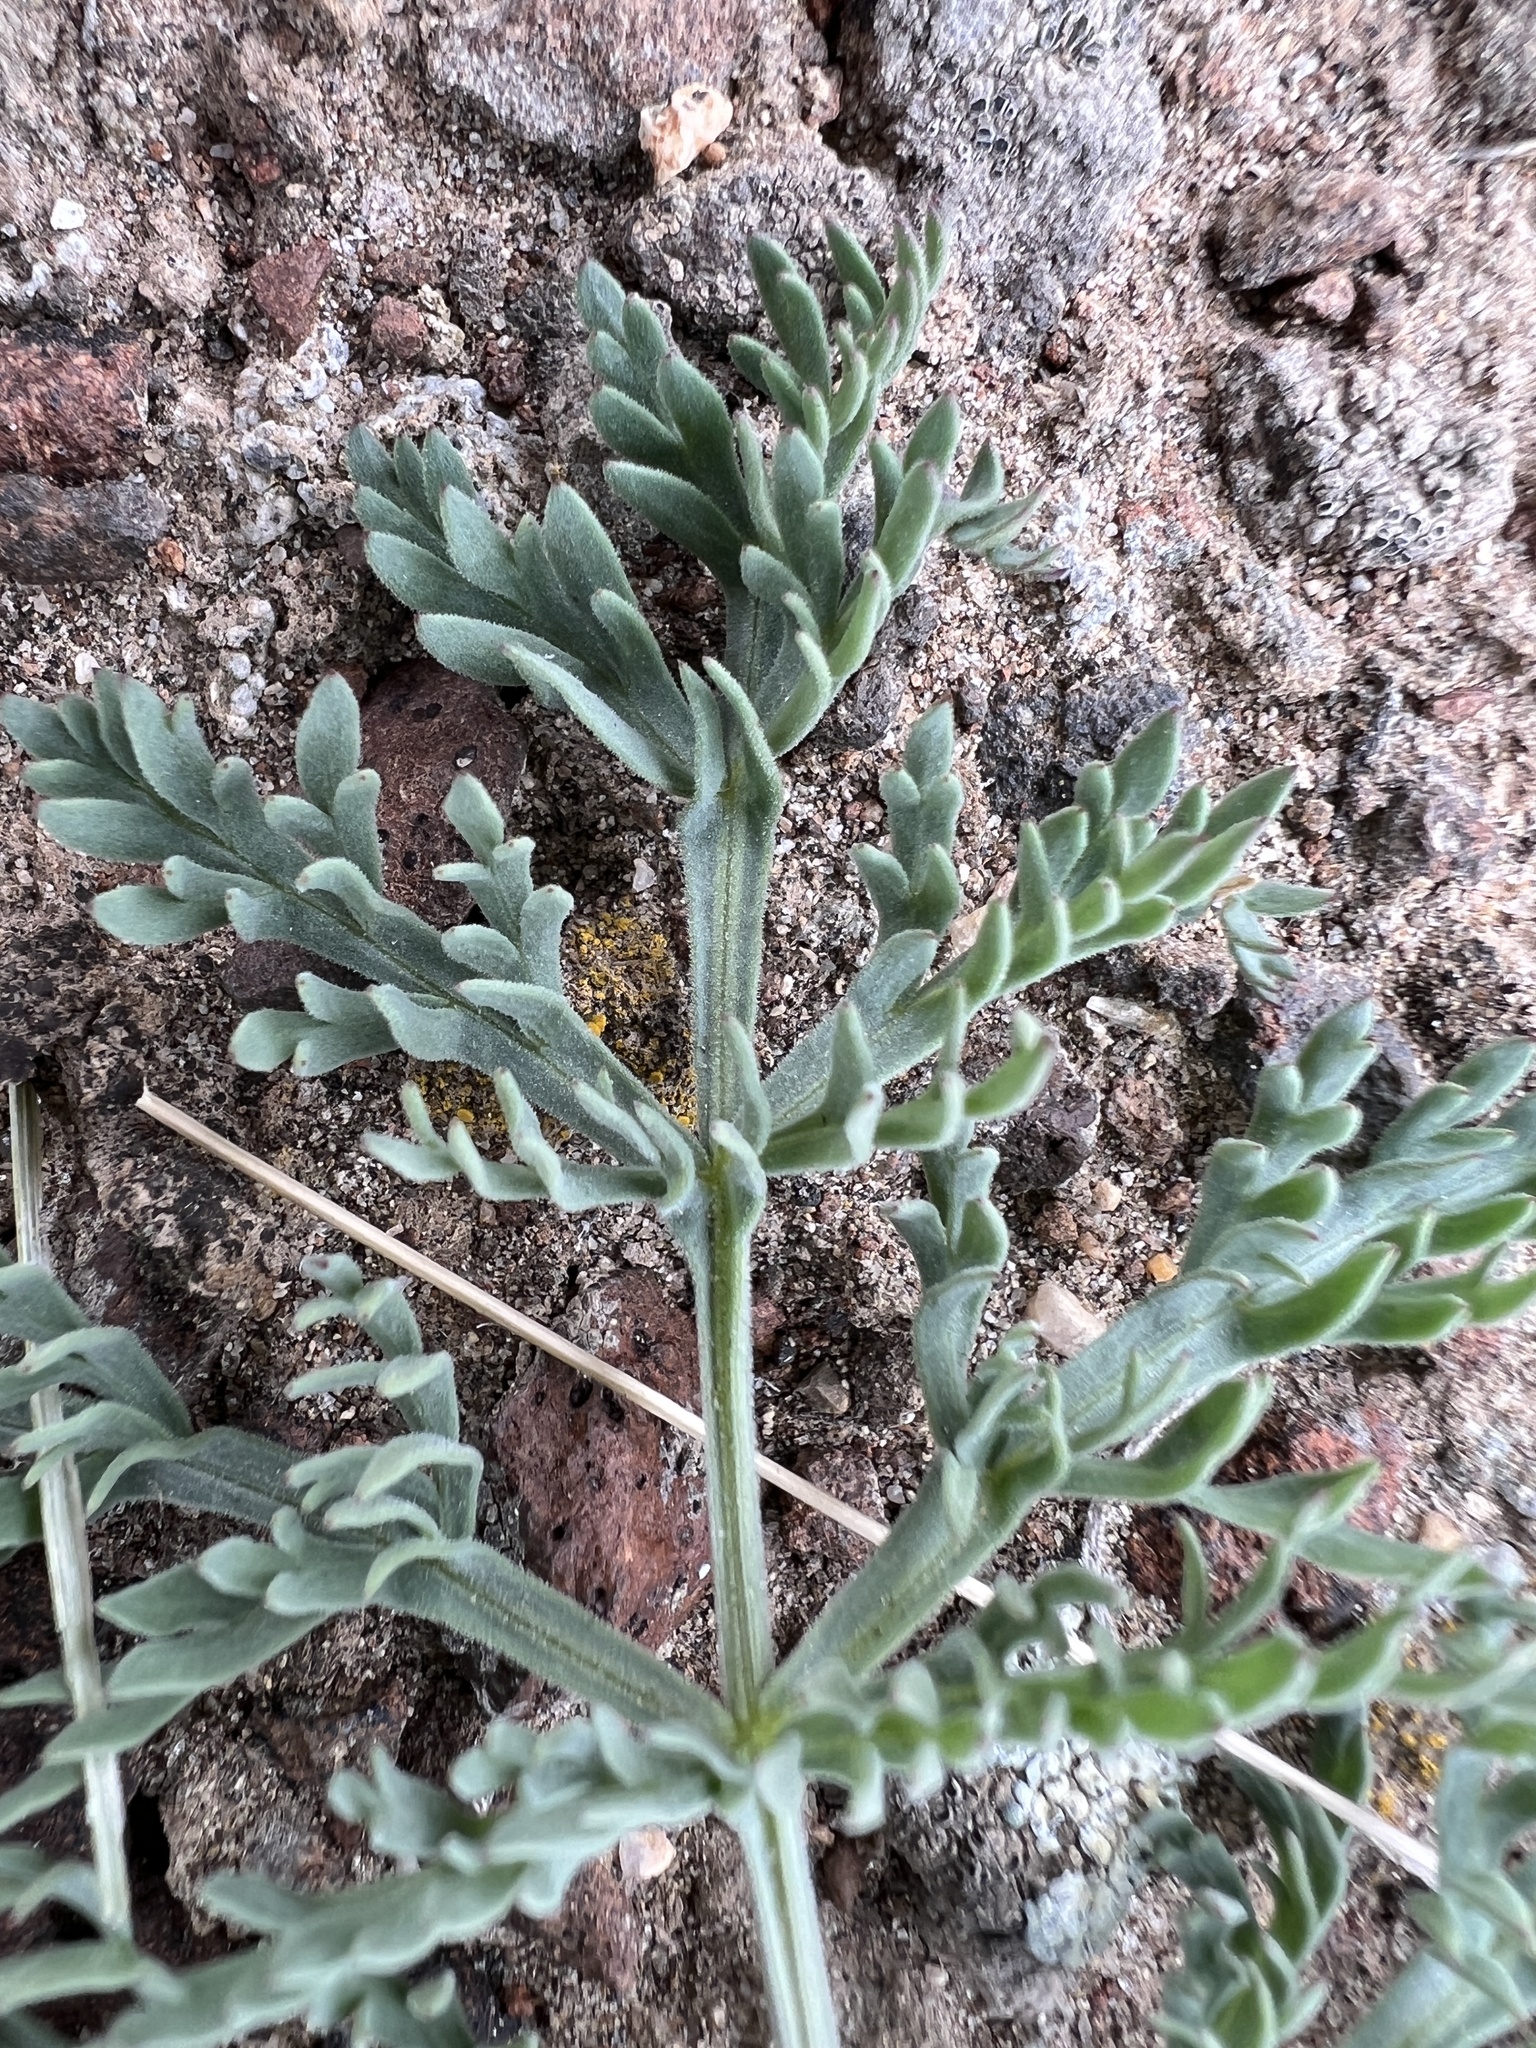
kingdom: Plantae
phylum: Tracheophyta
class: Magnoliopsida
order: Apiales
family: Apiaceae
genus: Lomatium
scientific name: Lomatium macrocarpum
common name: Big-seed biscuitroot
